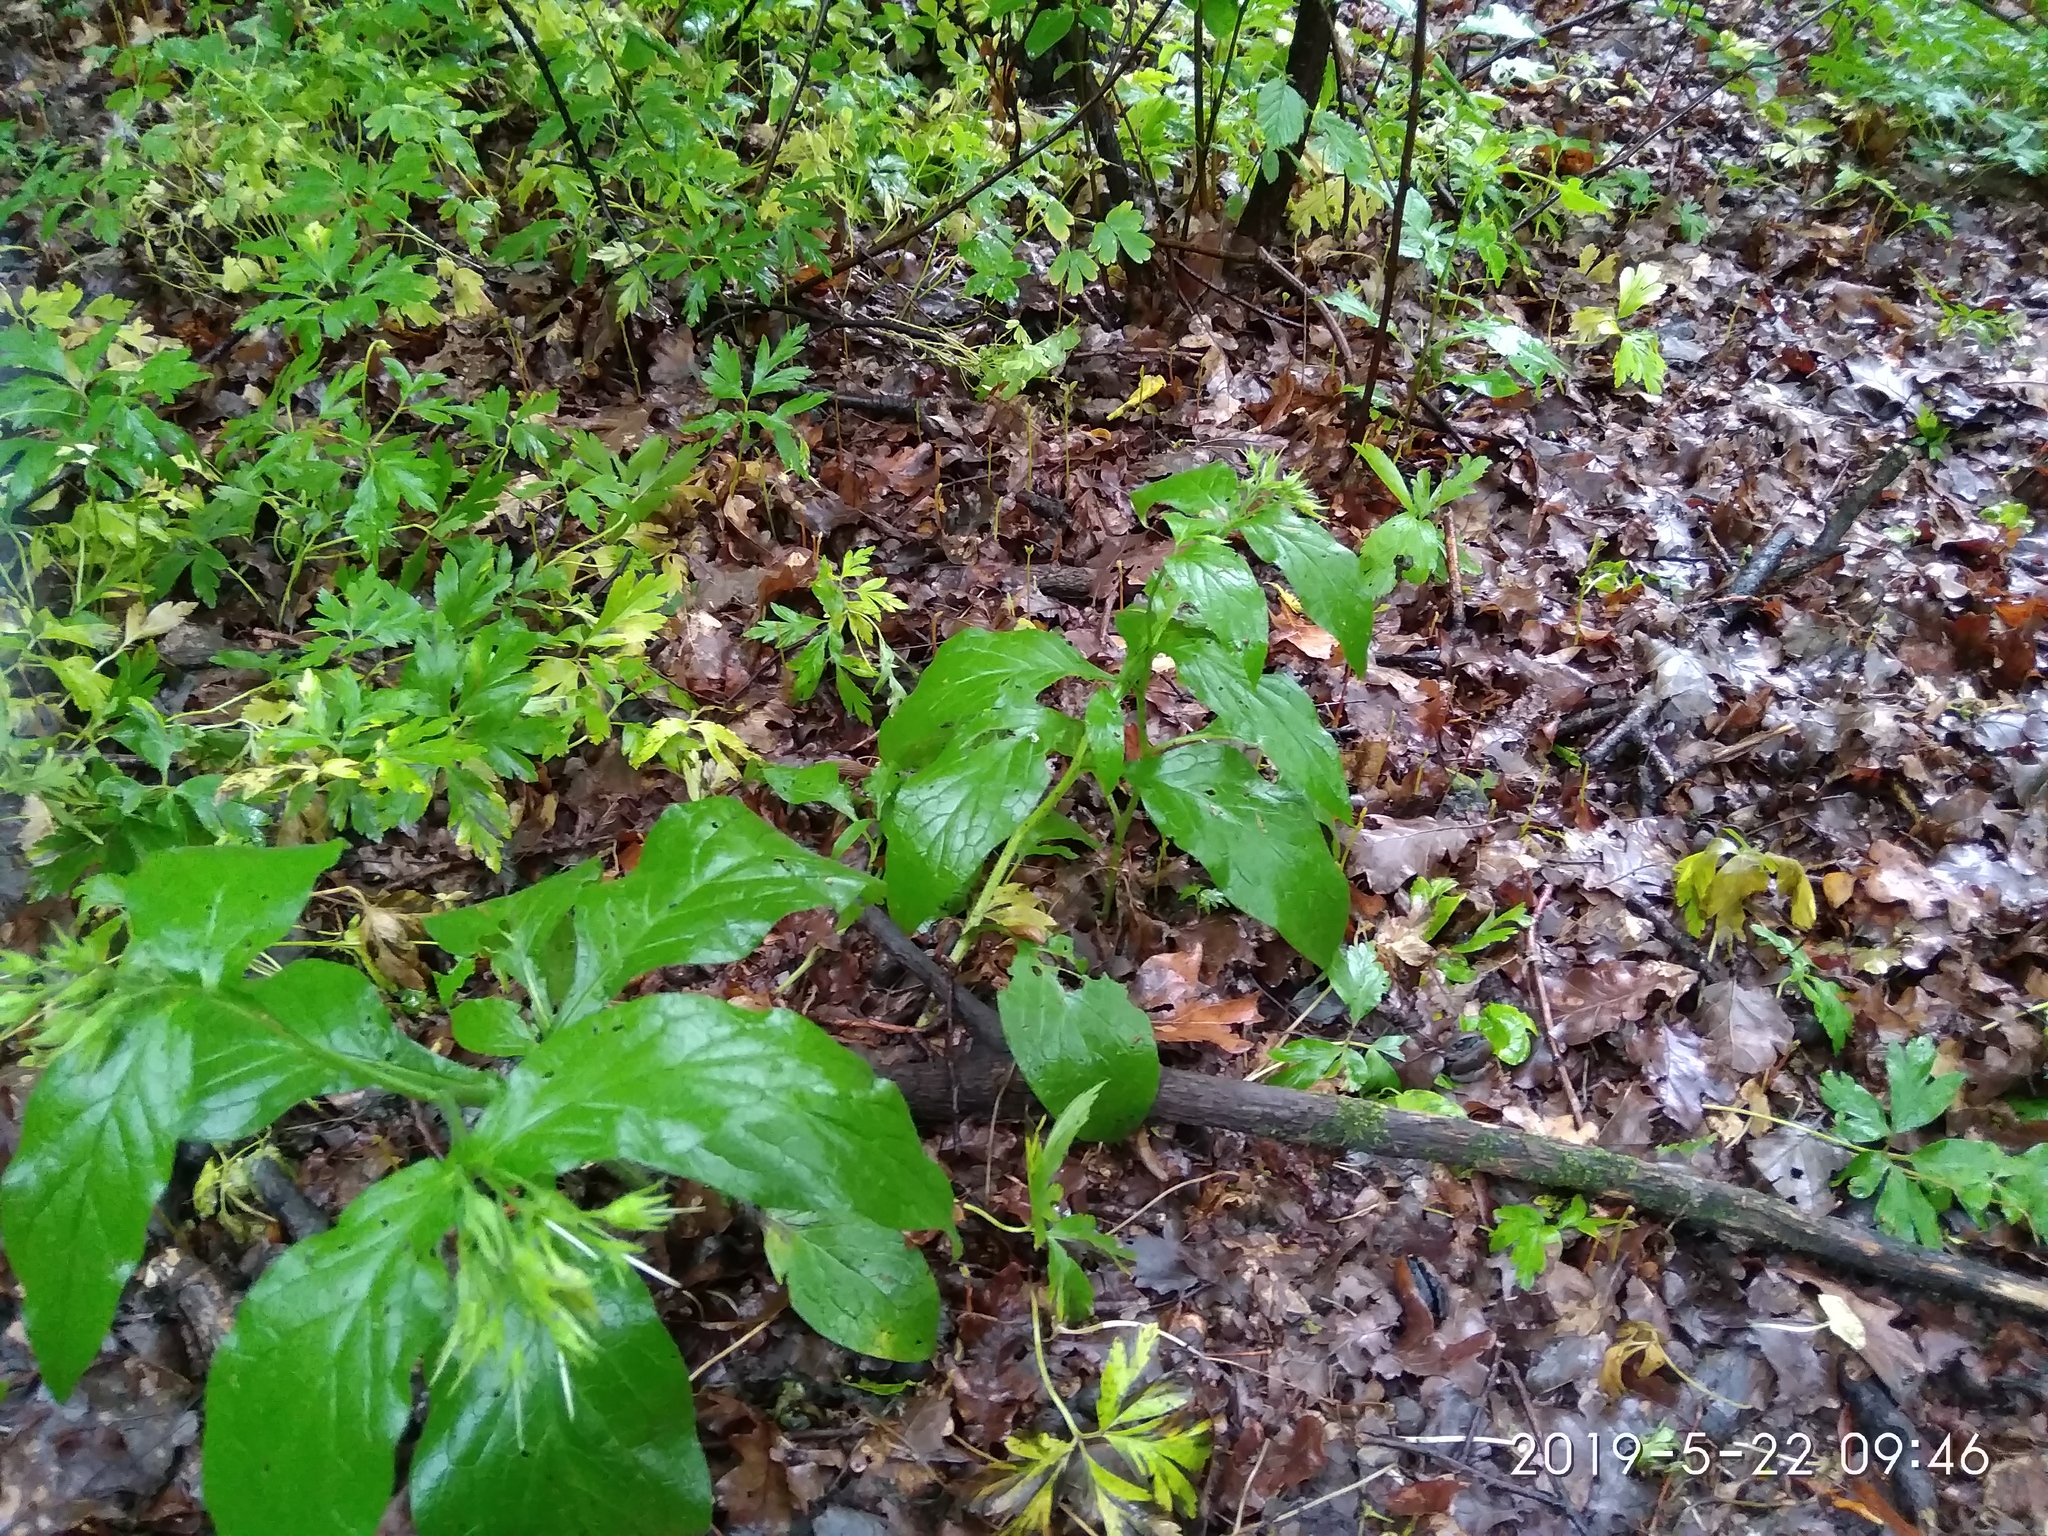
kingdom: Plantae
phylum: Tracheophyta
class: Magnoliopsida
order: Boraginales
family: Boraginaceae
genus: Symphytum
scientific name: Symphytum tuberosum
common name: Tuberous comfrey
